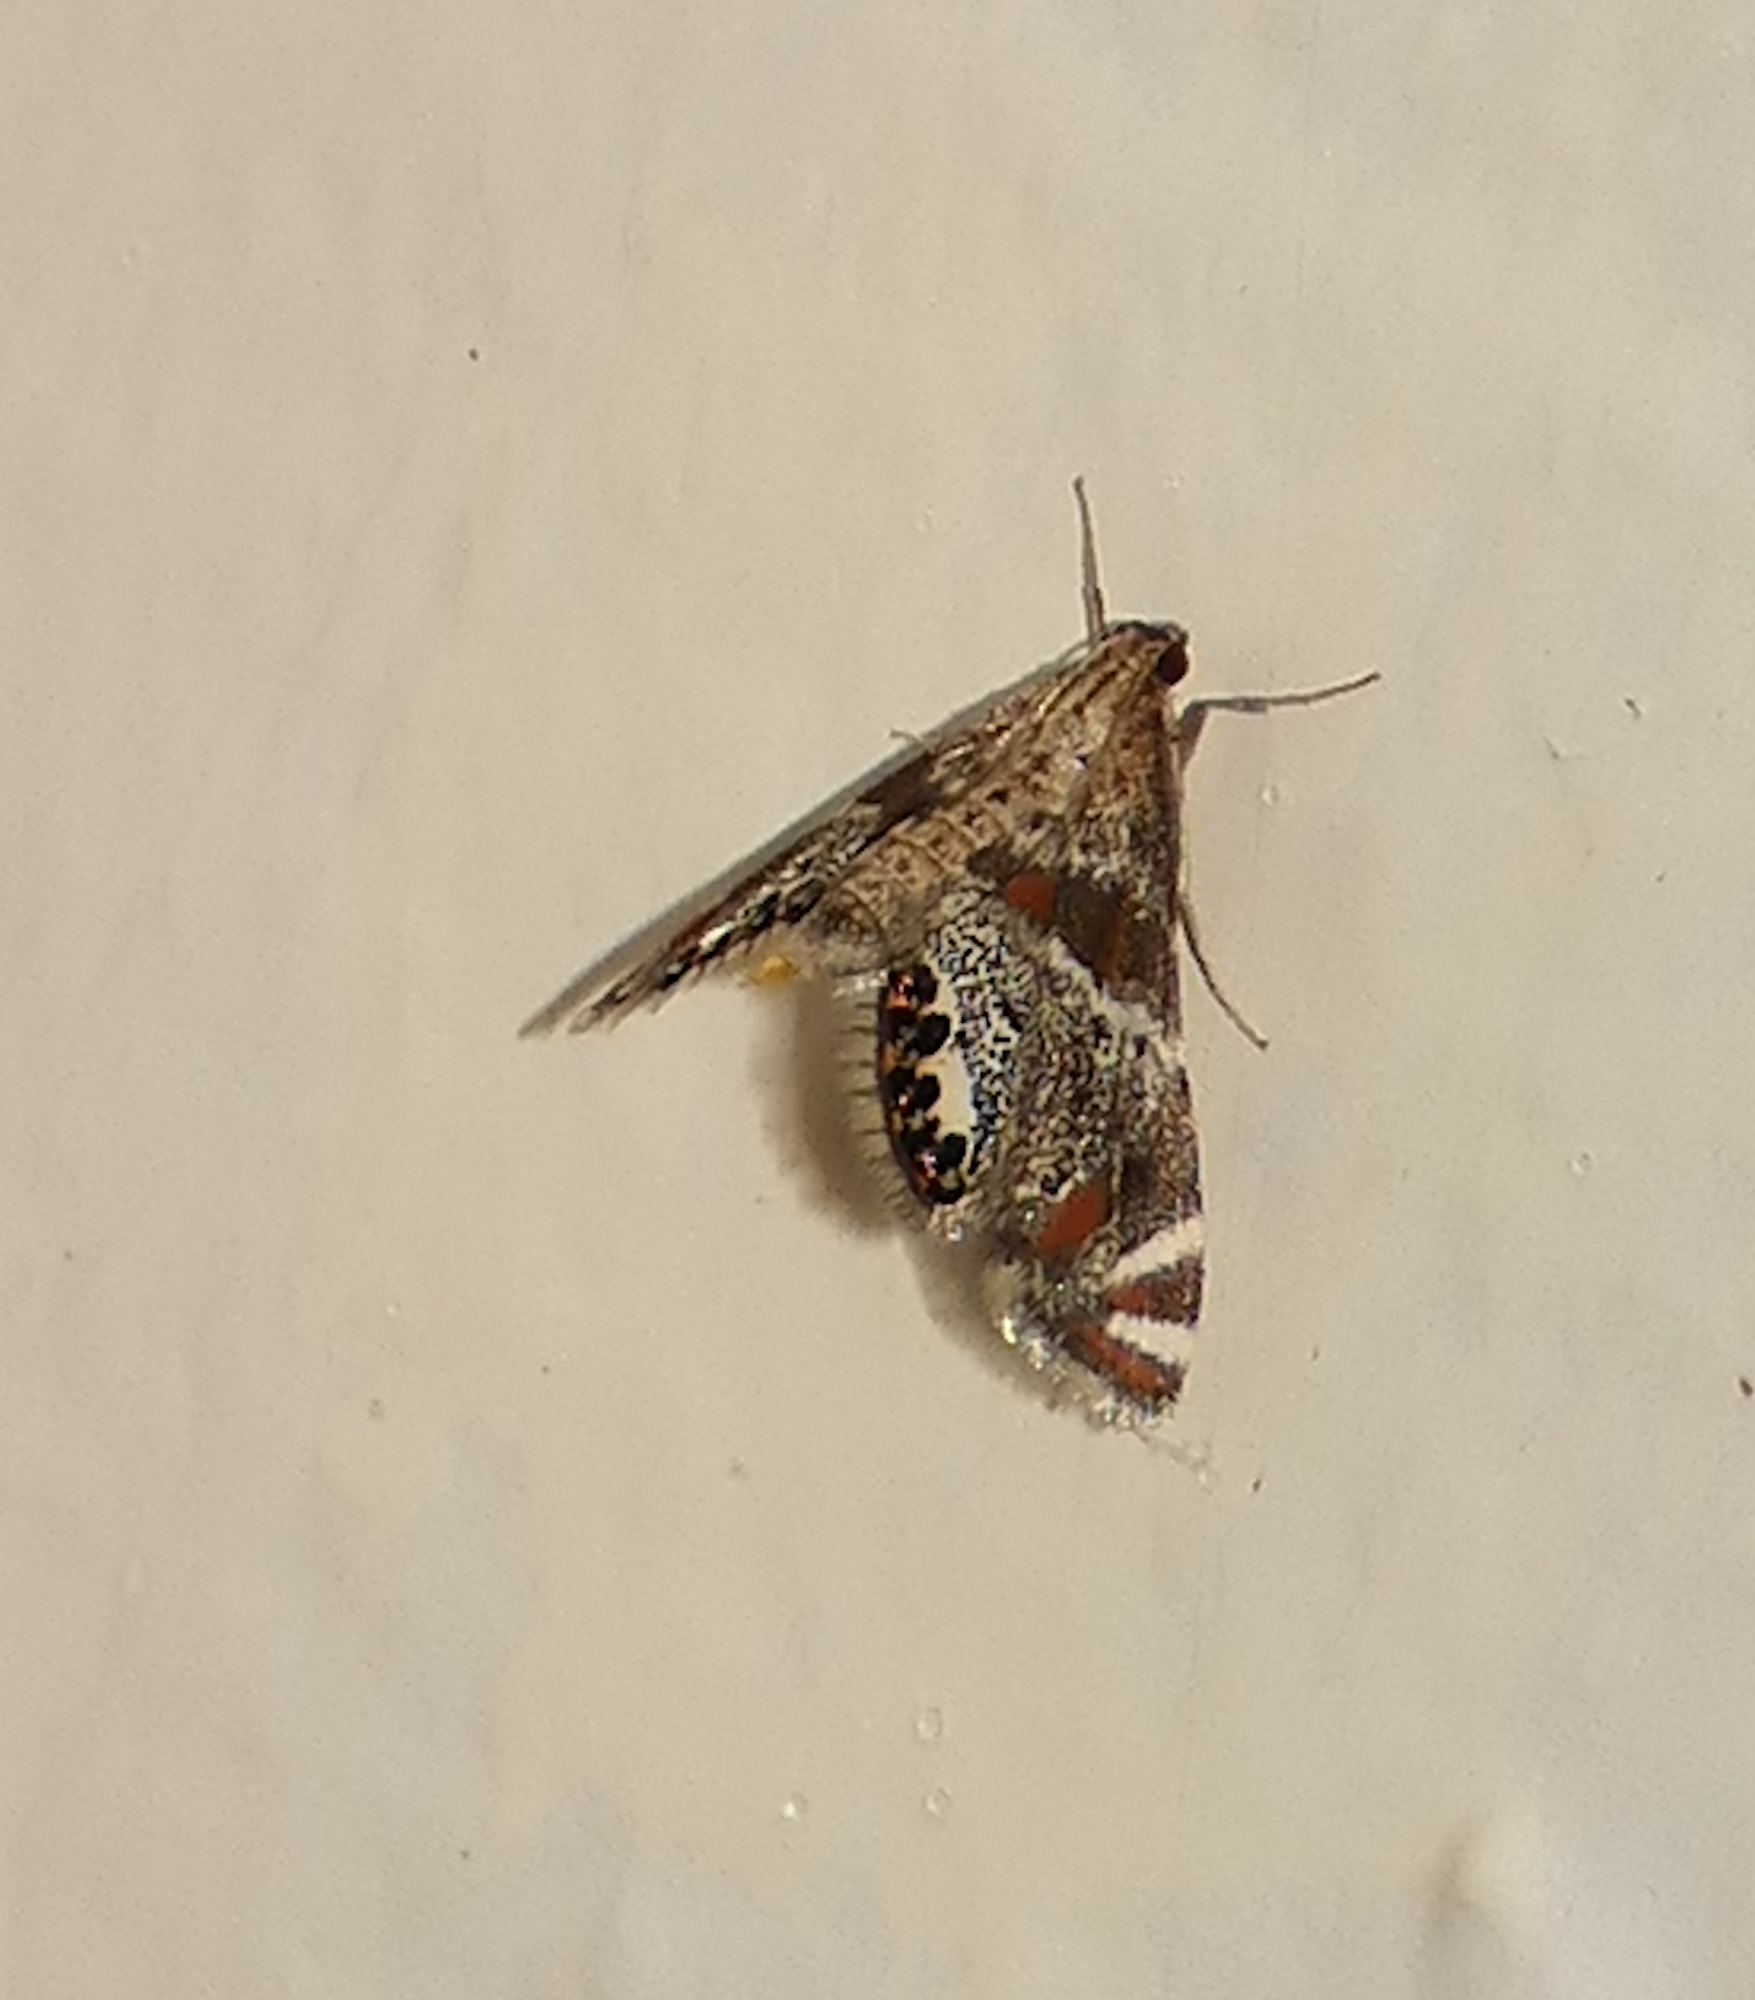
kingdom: Animalia
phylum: Arthropoda
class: Insecta
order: Lepidoptera
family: Crambidae
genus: Petrophila
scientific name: Petrophila jaliscalis
